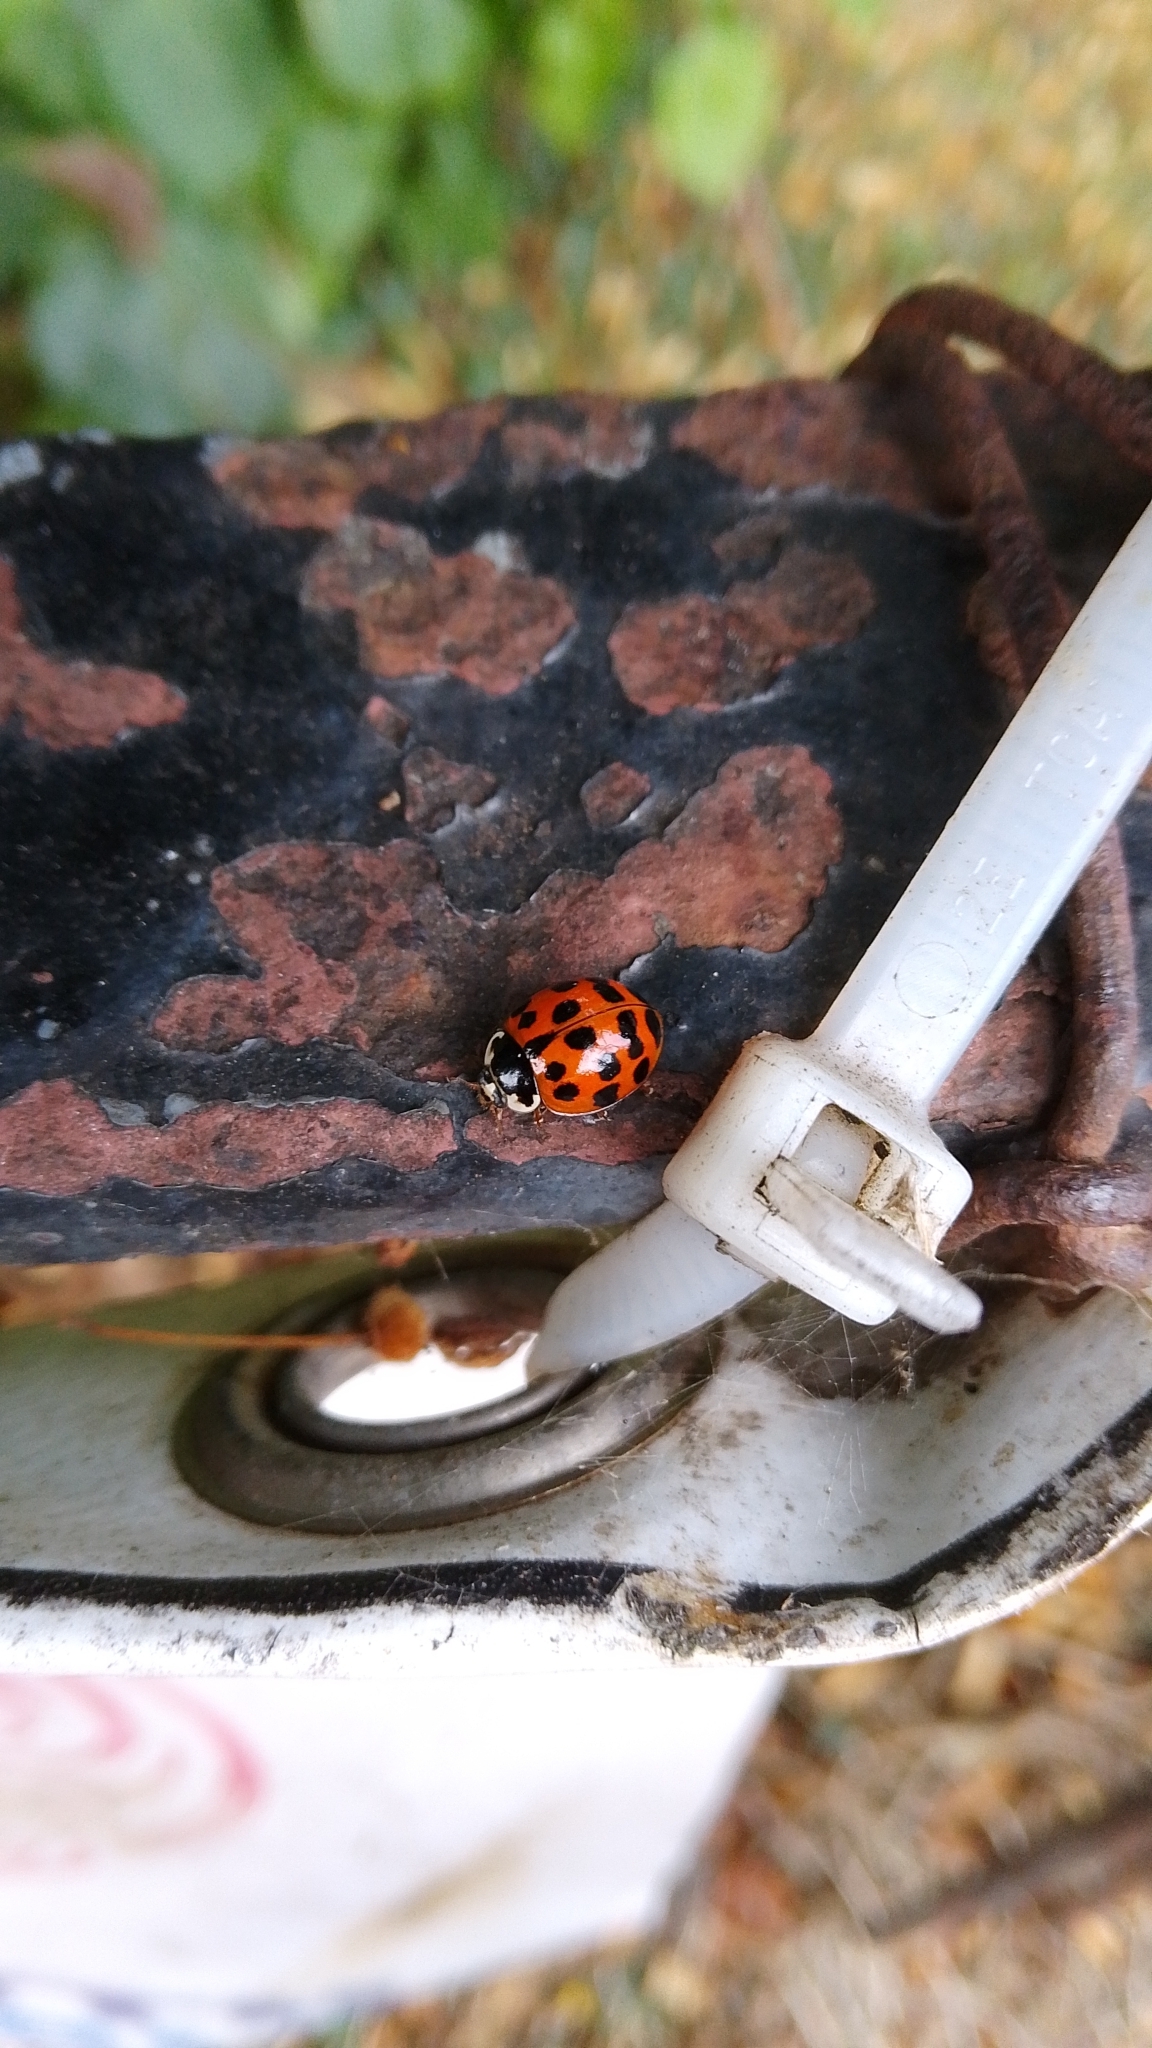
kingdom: Animalia
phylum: Arthropoda
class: Insecta
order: Coleoptera
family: Coccinellidae
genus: Harmonia
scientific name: Harmonia axyridis
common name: Harlequin ladybird
